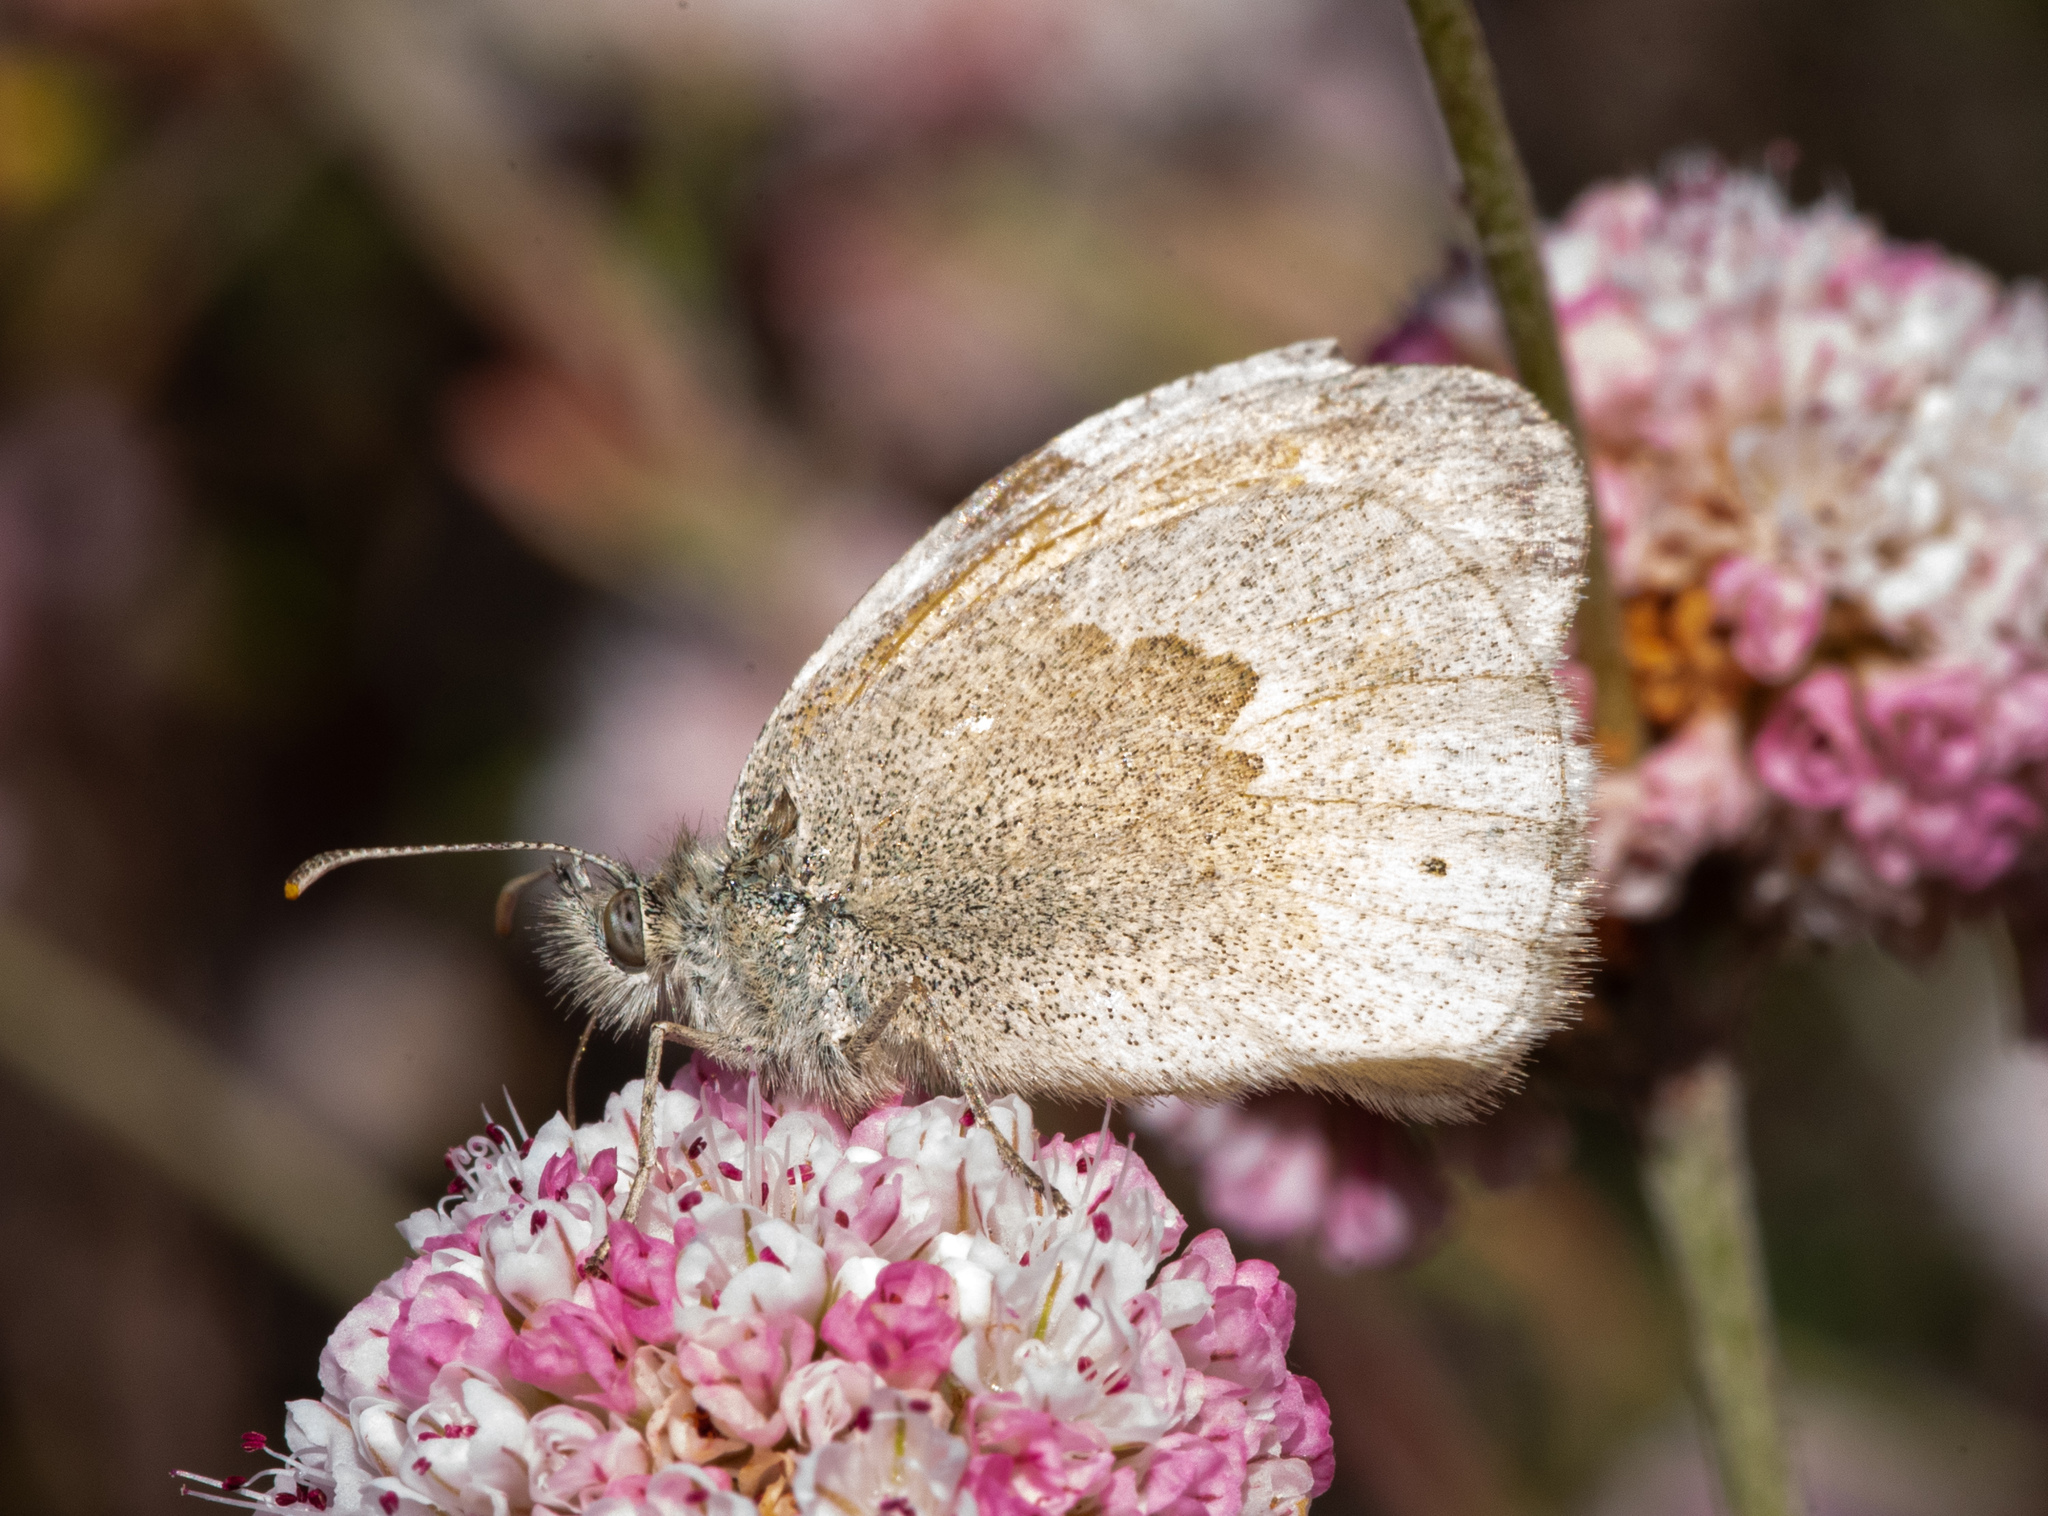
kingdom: Animalia
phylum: Arthropoda
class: Insecta
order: Lepidoptera
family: Nymphalidae
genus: Coenonympha
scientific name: Coenonympha california
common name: Common ringlet
